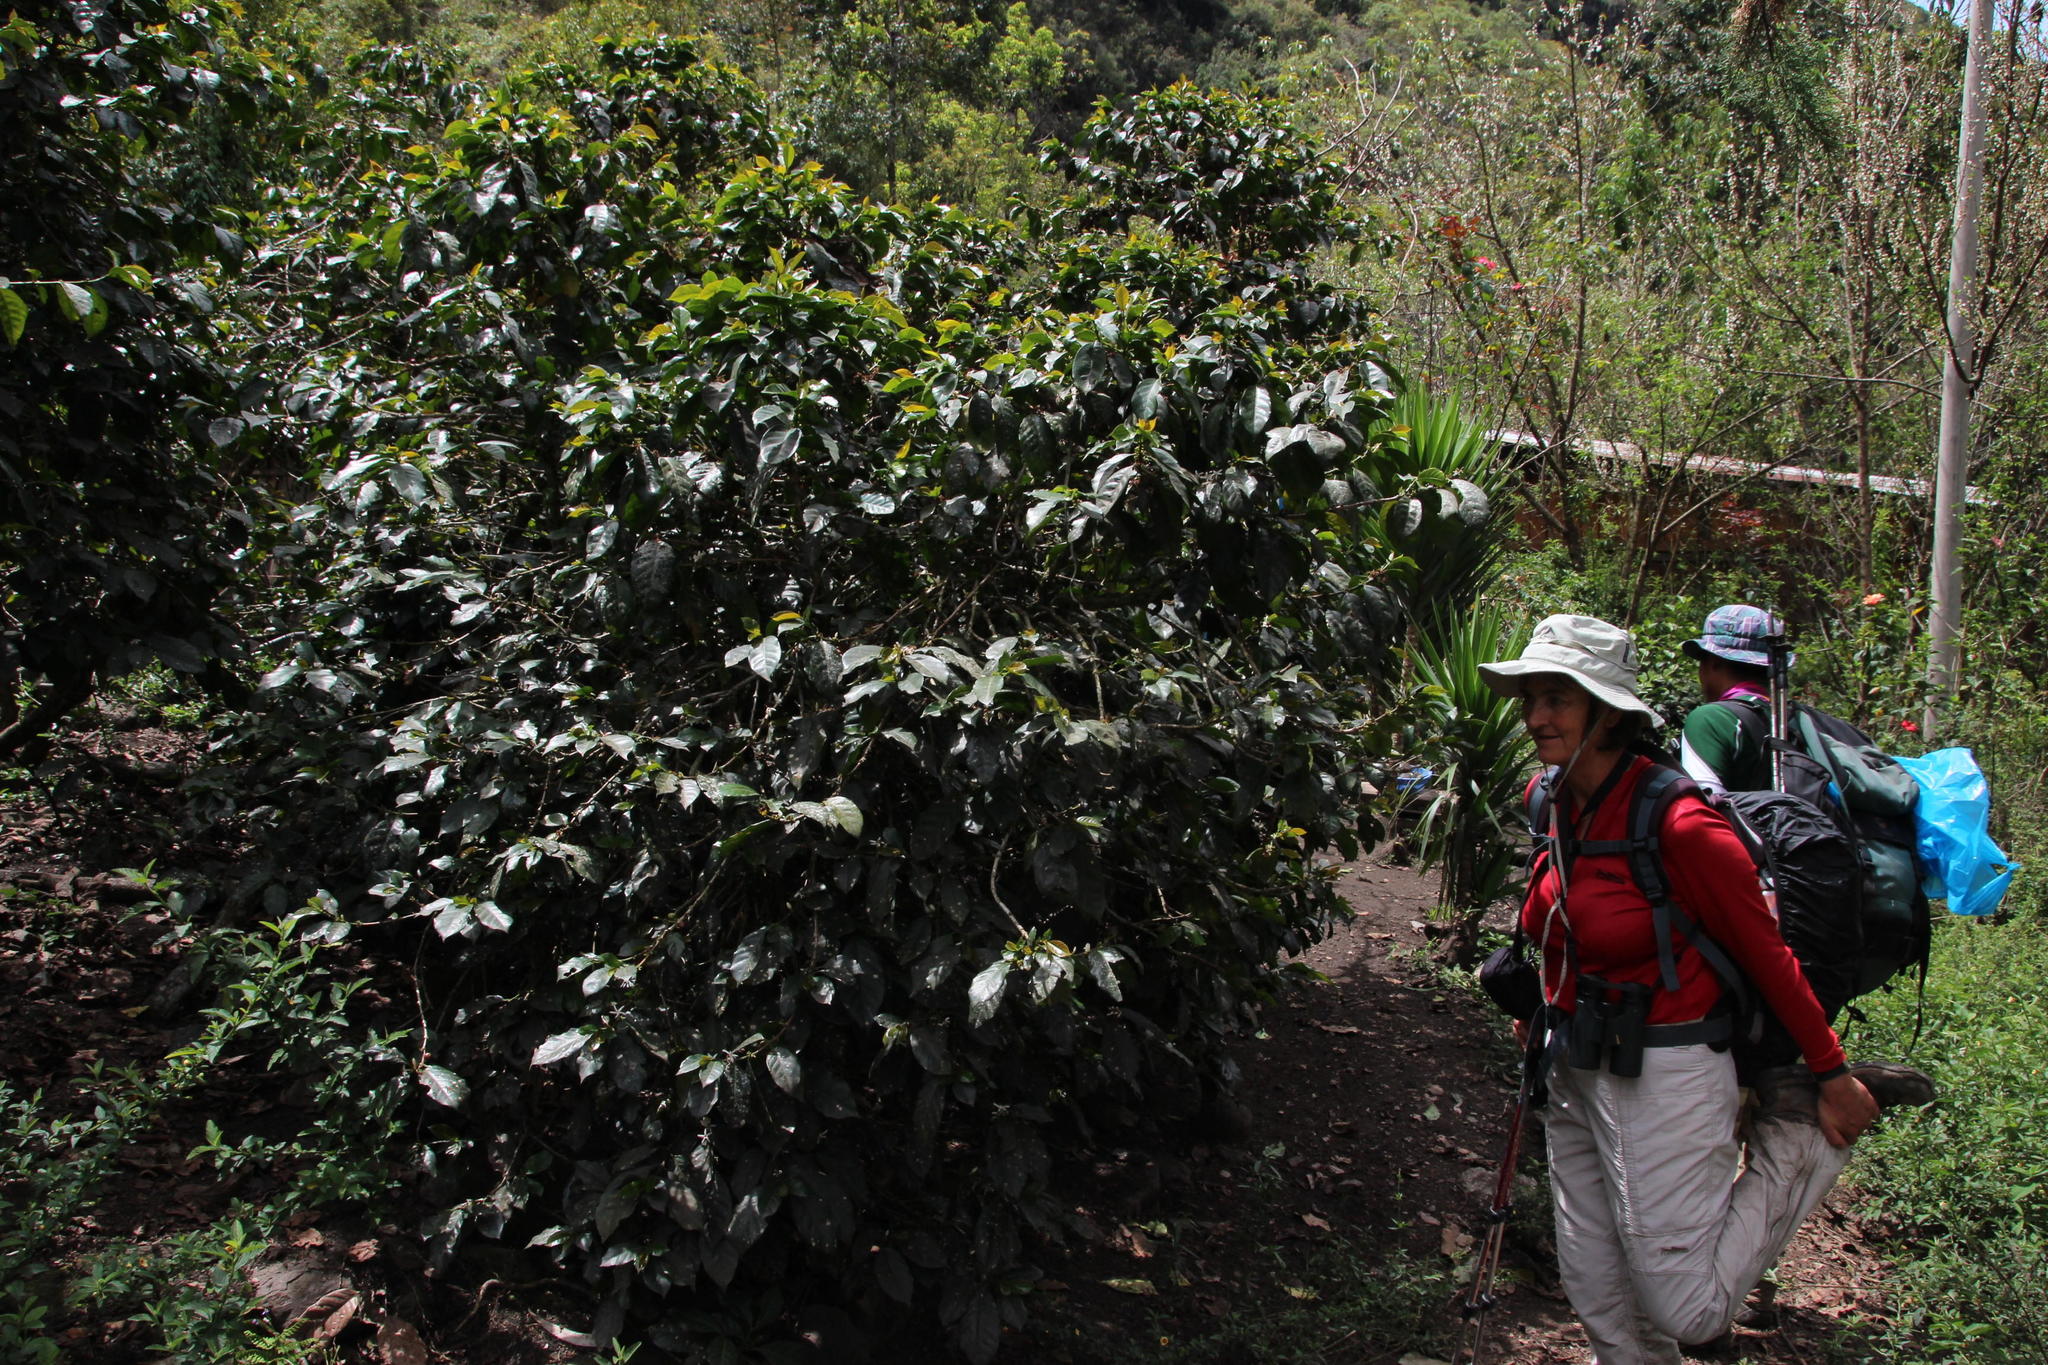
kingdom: Plantae
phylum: Tracheophyta
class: Magnoliopsida
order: Gentianales
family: Rubiaceae
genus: Coffea
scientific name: Coffea arabica
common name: Coffee
